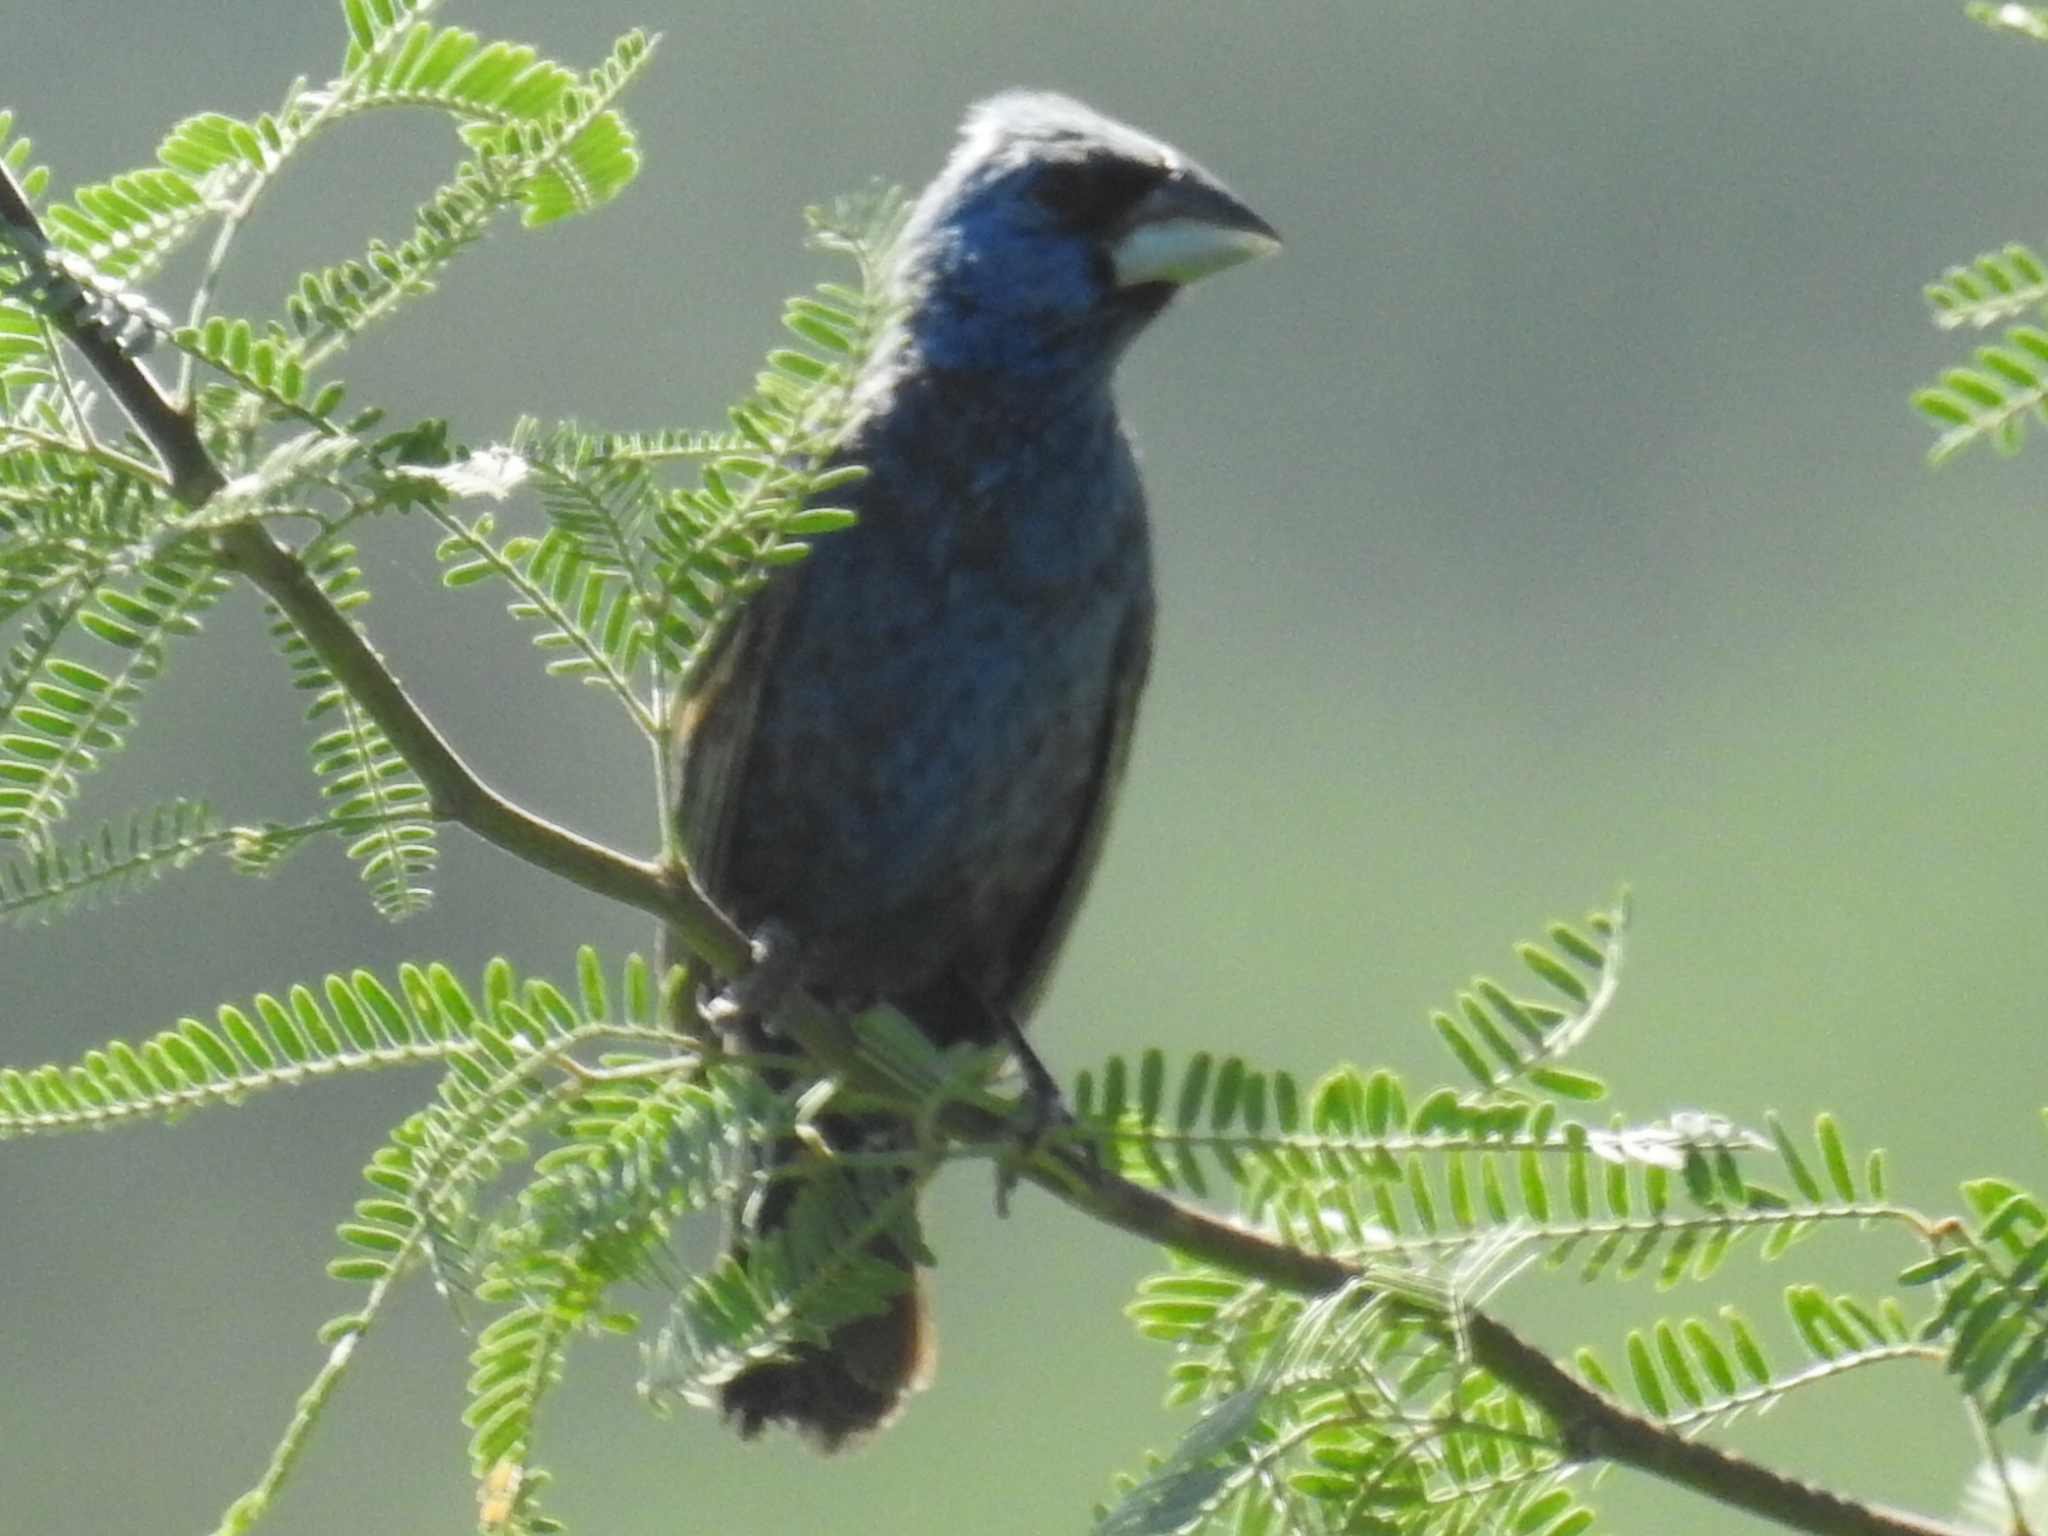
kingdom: Animalia
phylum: Chordata
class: Aves
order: Passeriformes
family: Cardinalidae
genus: Passerina
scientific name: Passerina caerulea
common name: Blue grosbeak
